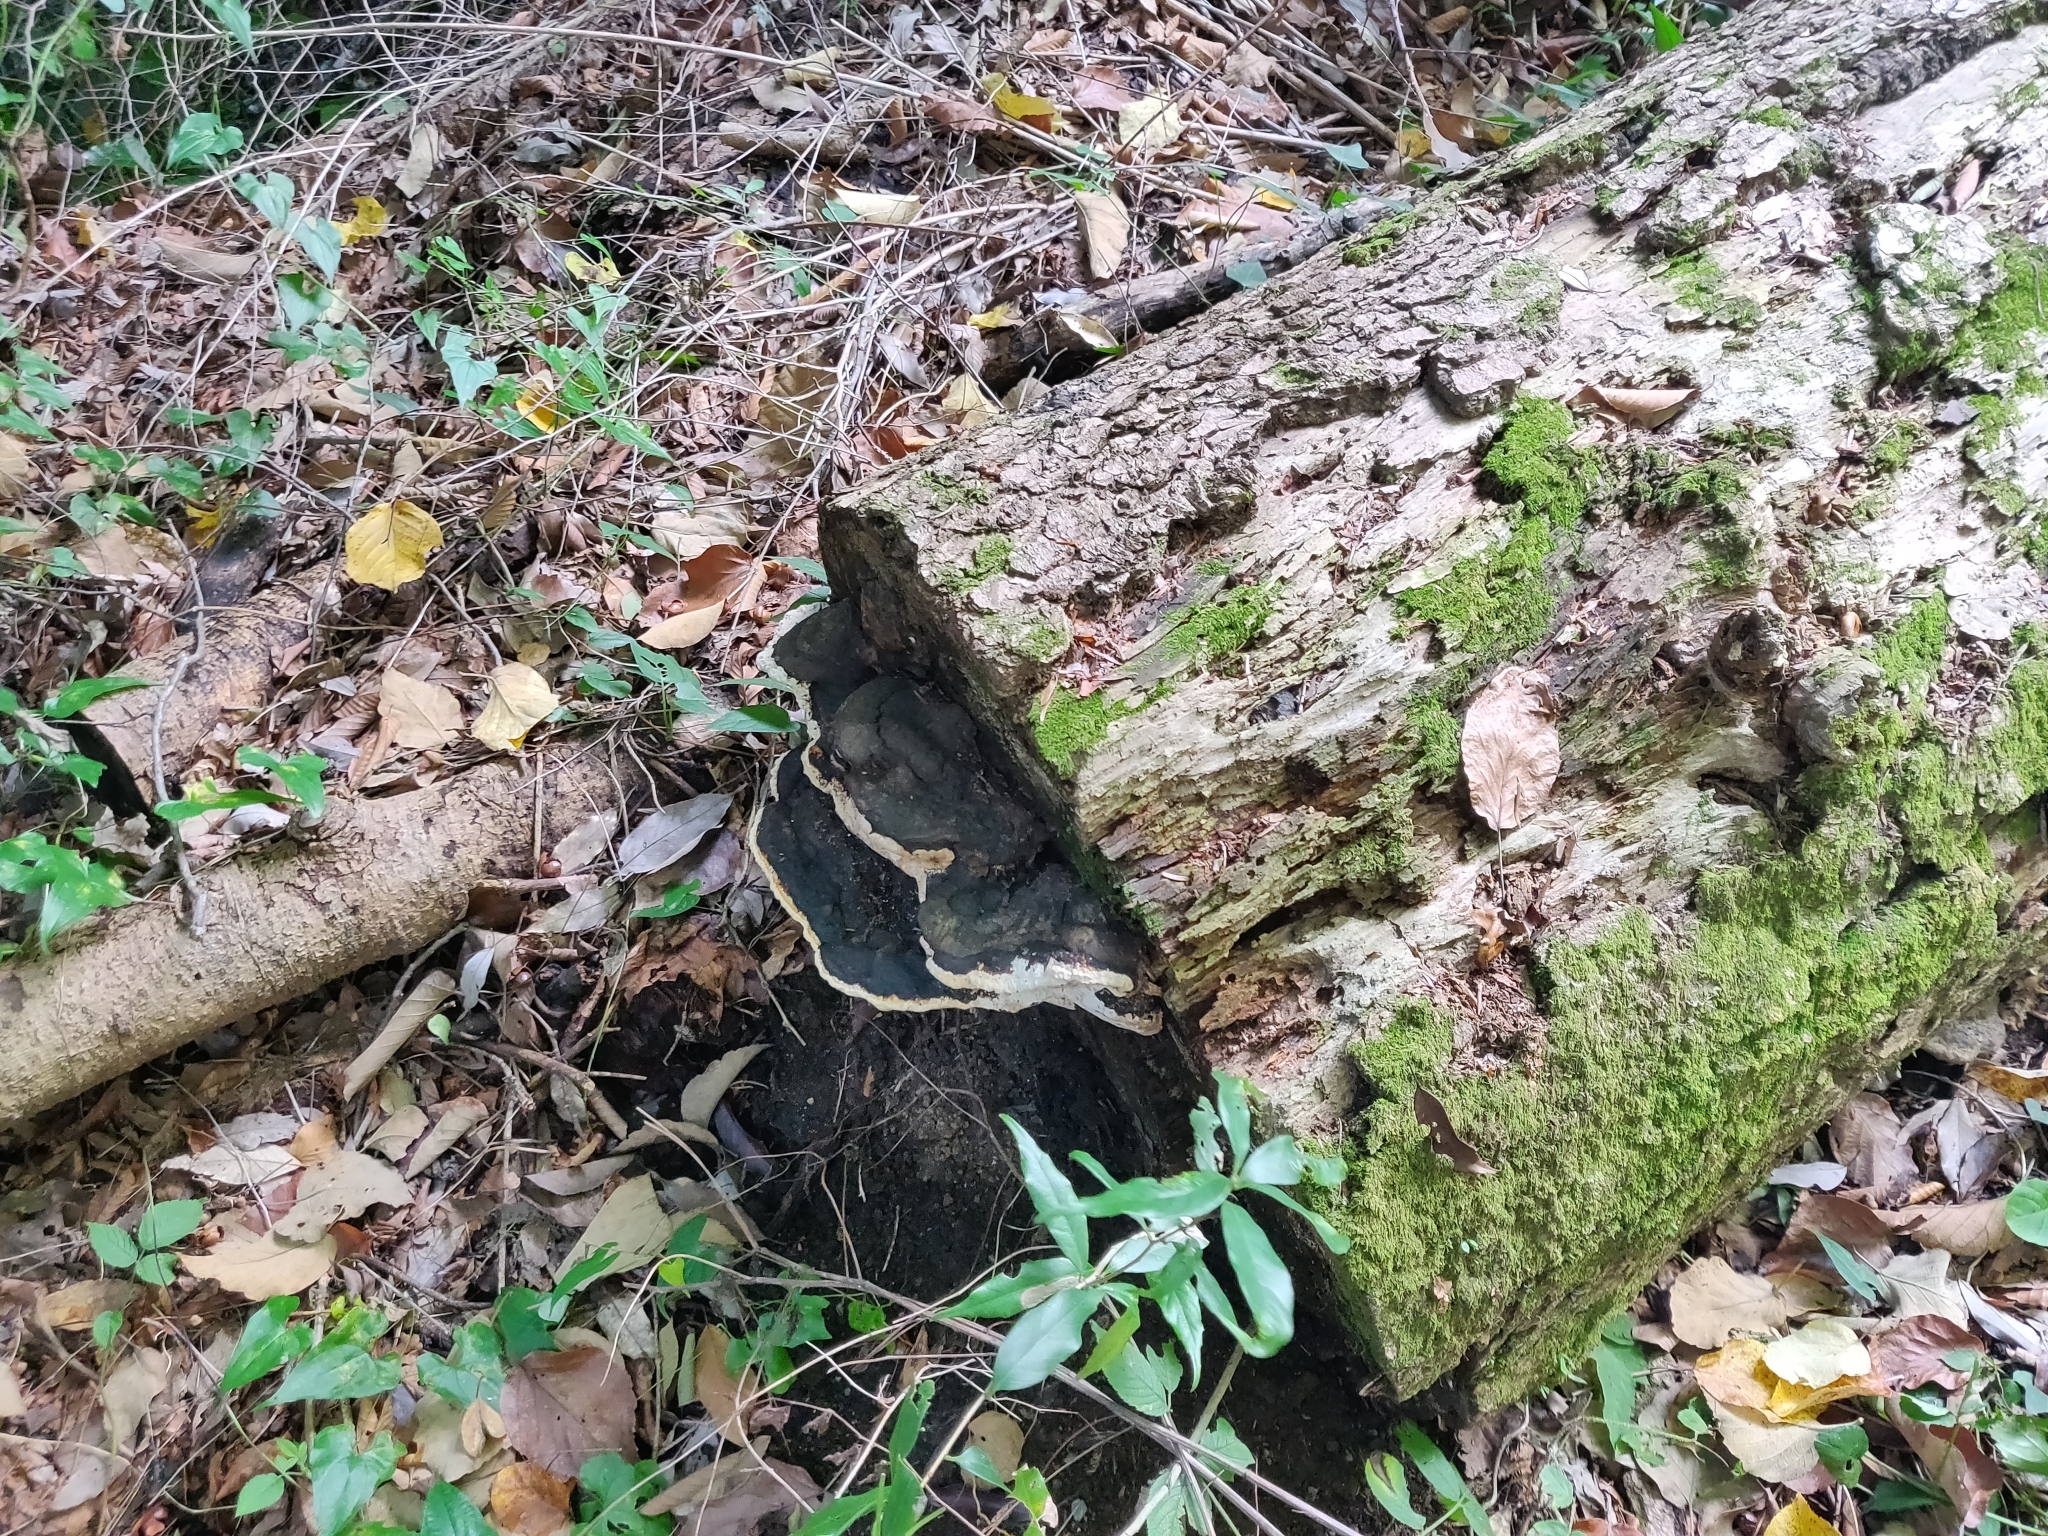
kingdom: Fungi
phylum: Basidiomycota
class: Agaricomycetes
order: Polyporales
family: Fomitopsidaceae
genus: Fomitopsis
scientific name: Fomitopsis pinicola
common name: Red-belted bracket
